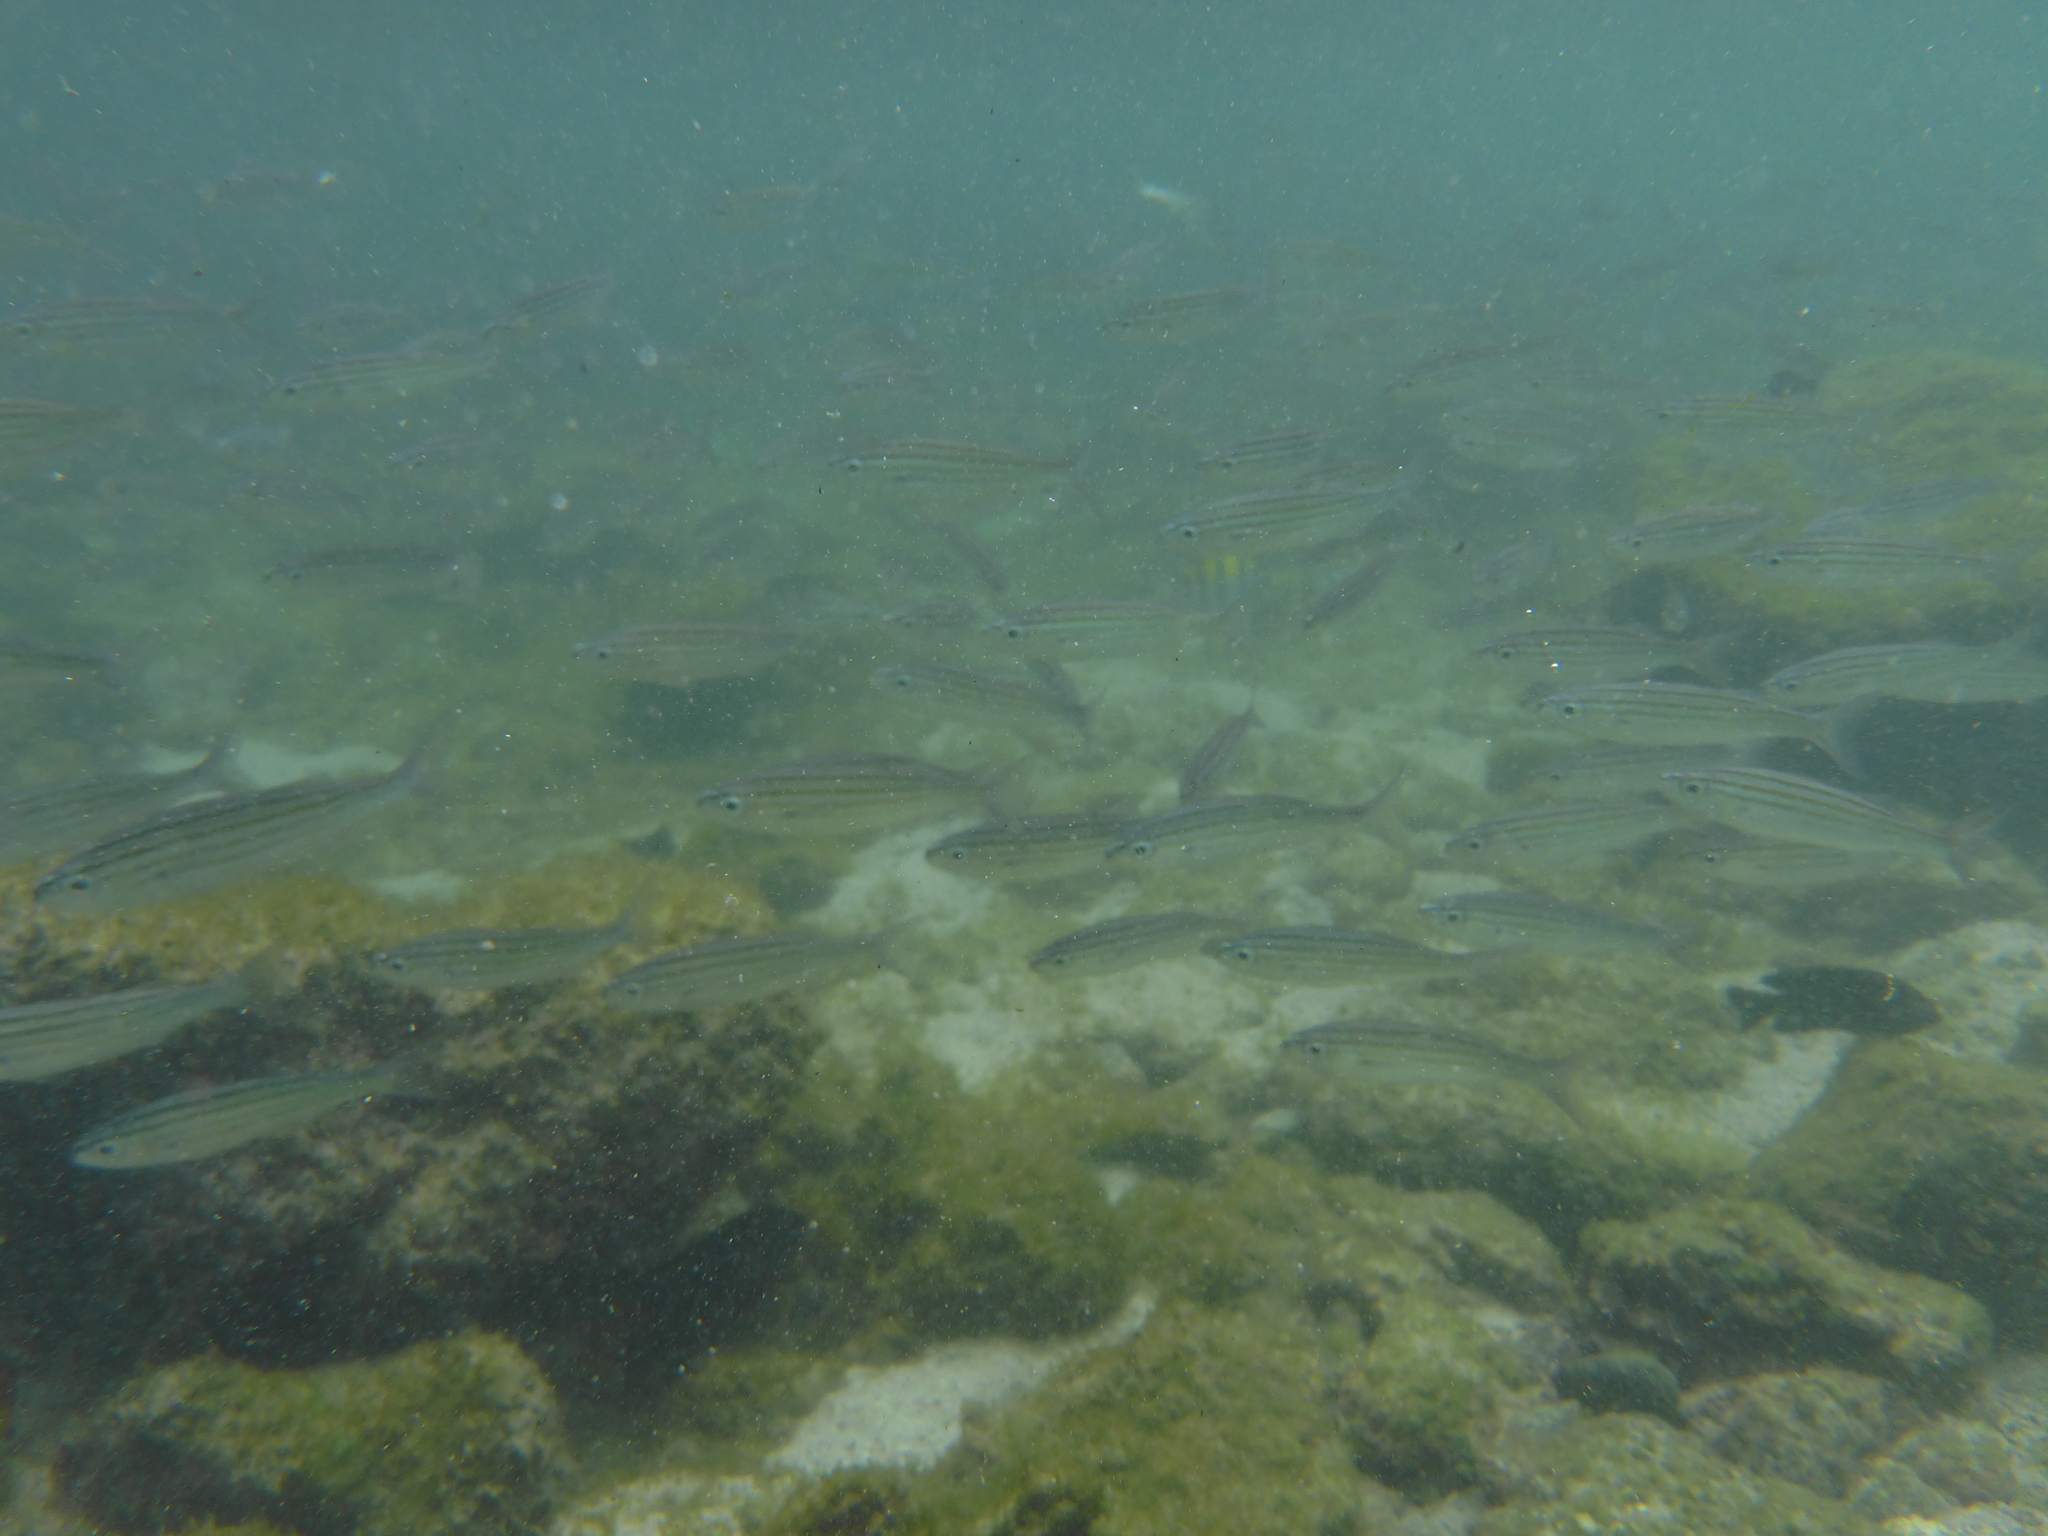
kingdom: Animalia
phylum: Chordata
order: Perciformes
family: Haemulidae
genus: Xenocys
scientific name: Xenocys jessiae
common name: Black-striped salema
